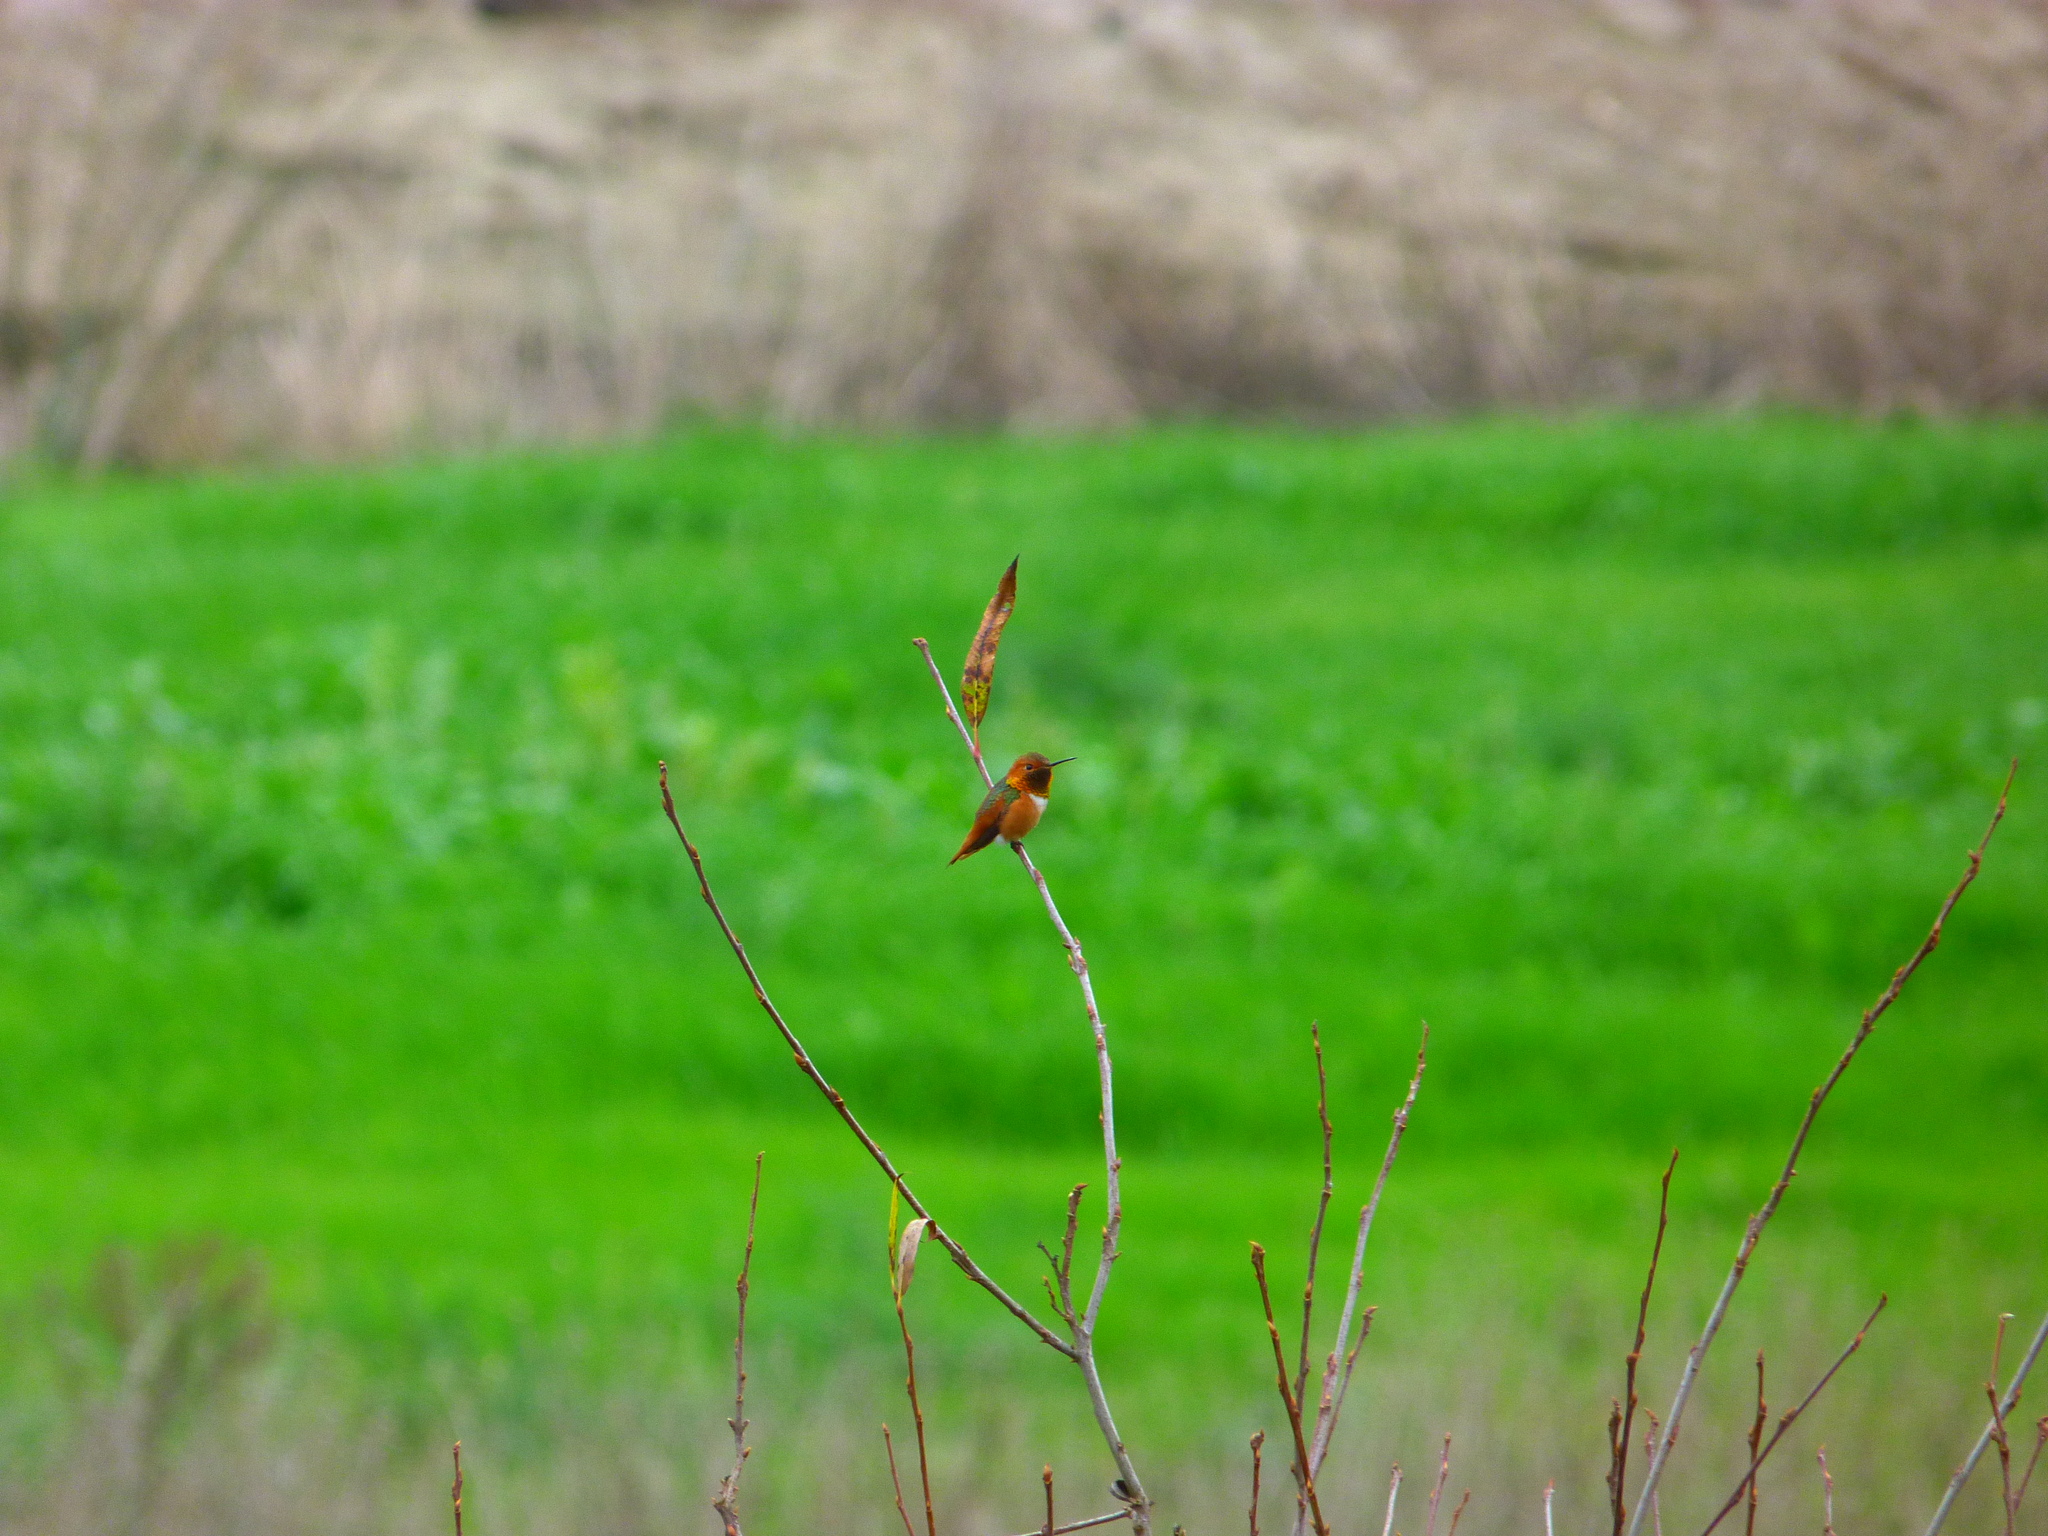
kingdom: Animalia
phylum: Chordata
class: Aves
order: Apodiformes
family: Trochilidae
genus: Selasphorus
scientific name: Selasphorus sasin
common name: Allen's hummingbird
